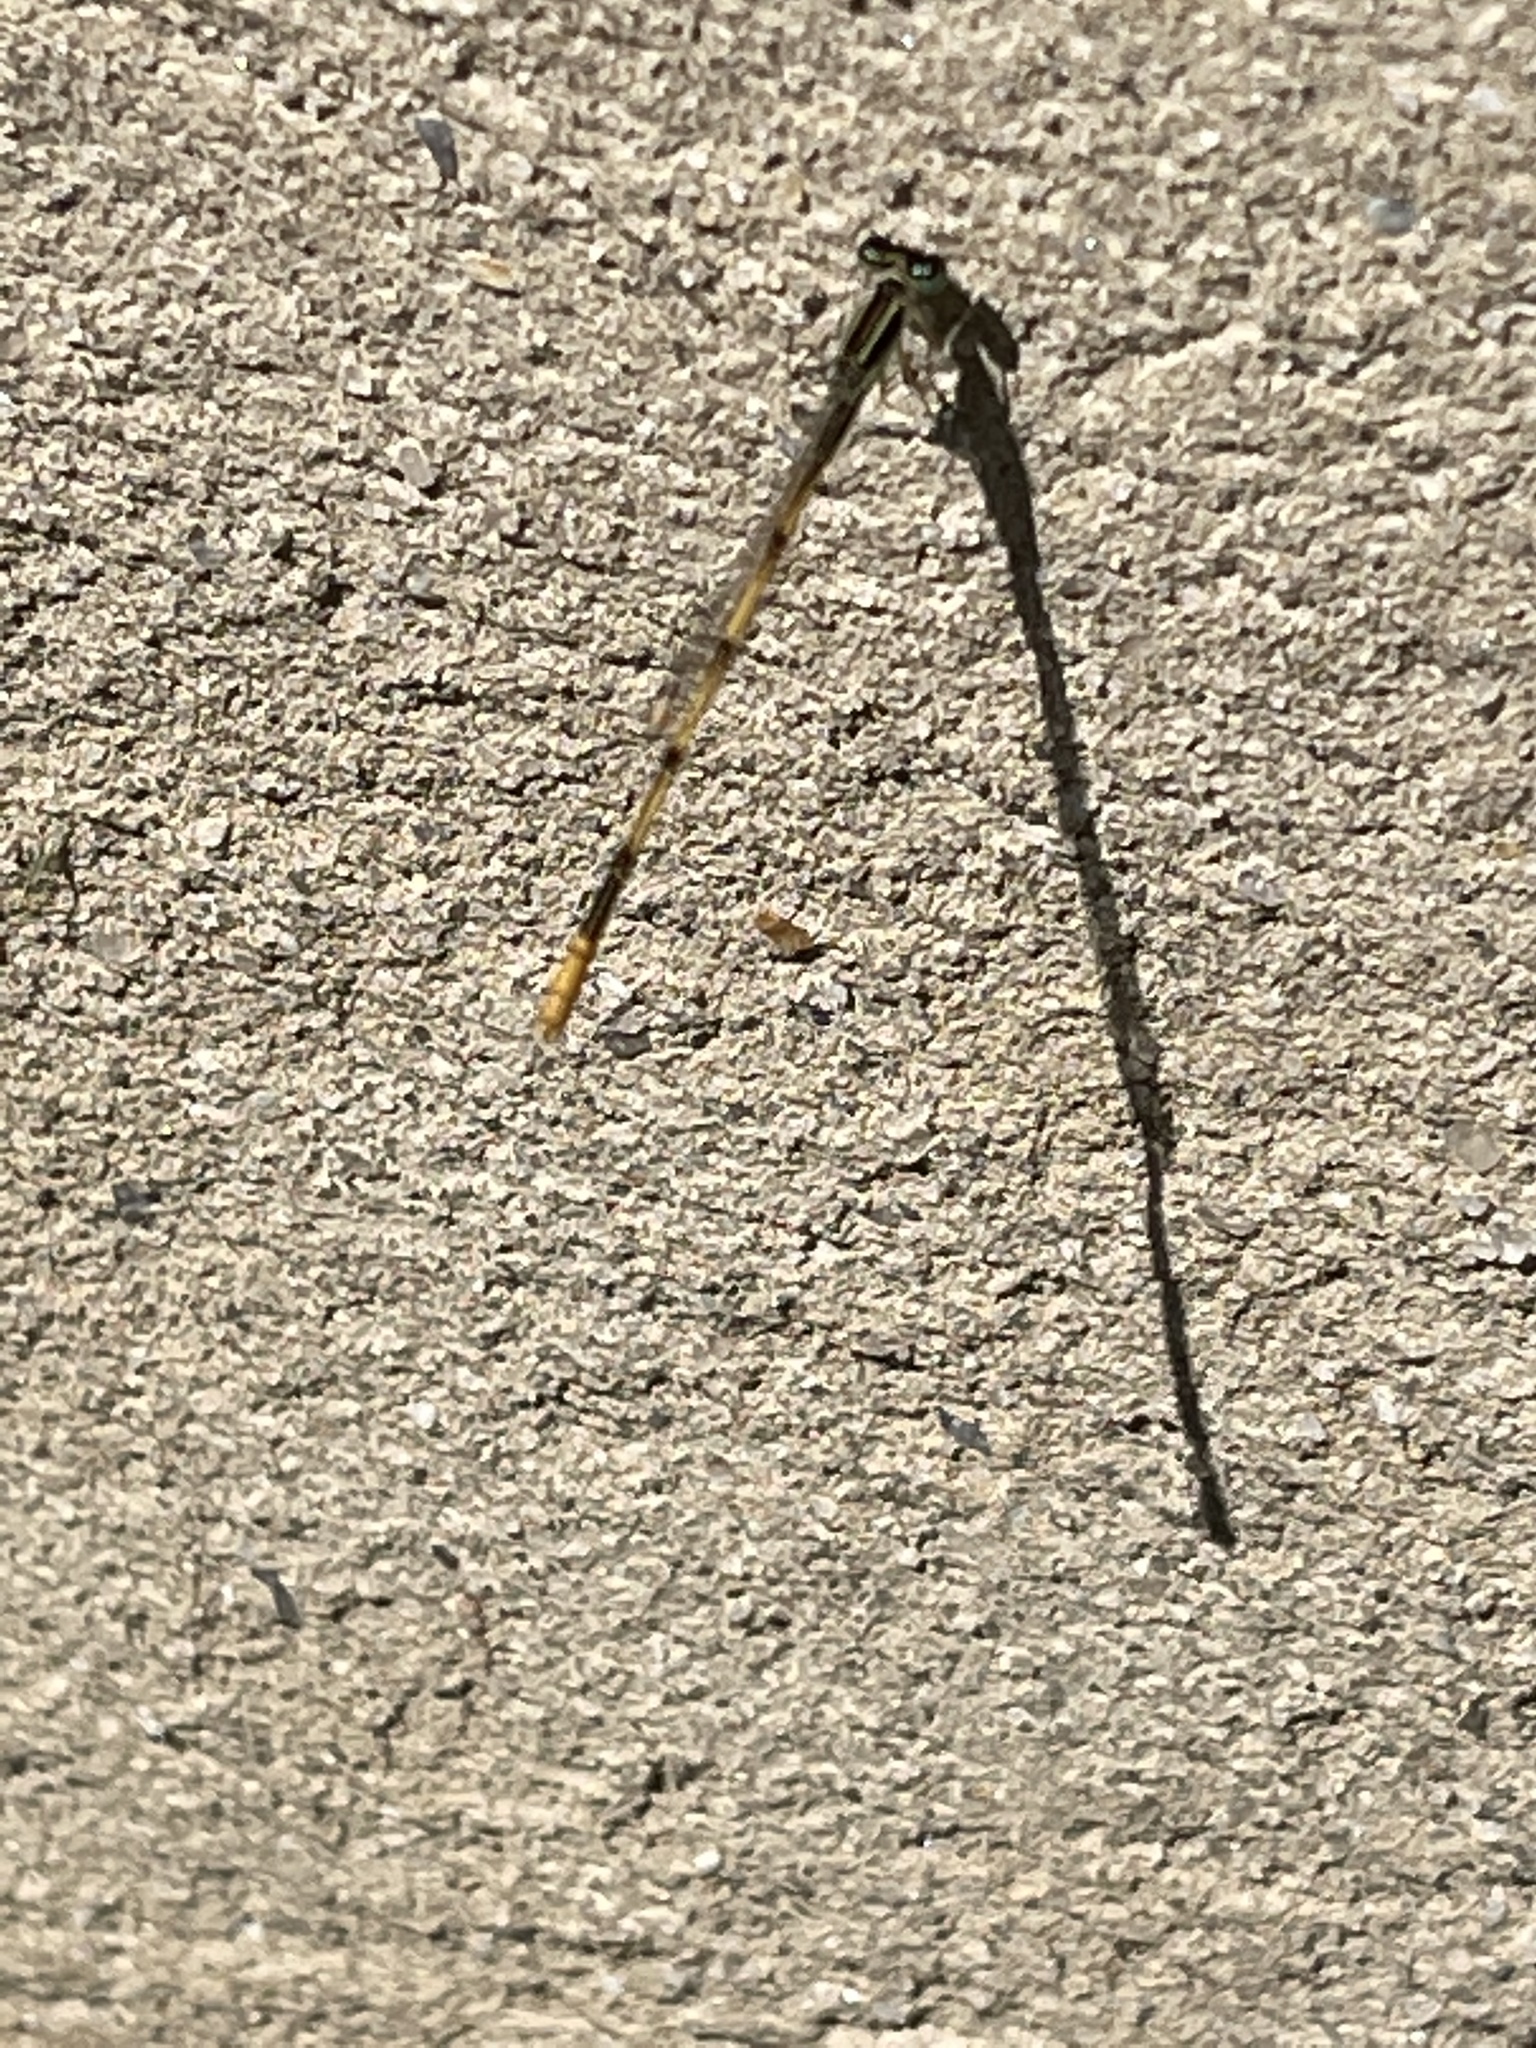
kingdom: Animalia
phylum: Arthropoda
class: Insecta
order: Odonata
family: Coenagrionidae
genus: Ischnura
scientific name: Ischnura hastata
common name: Citrine forktail
